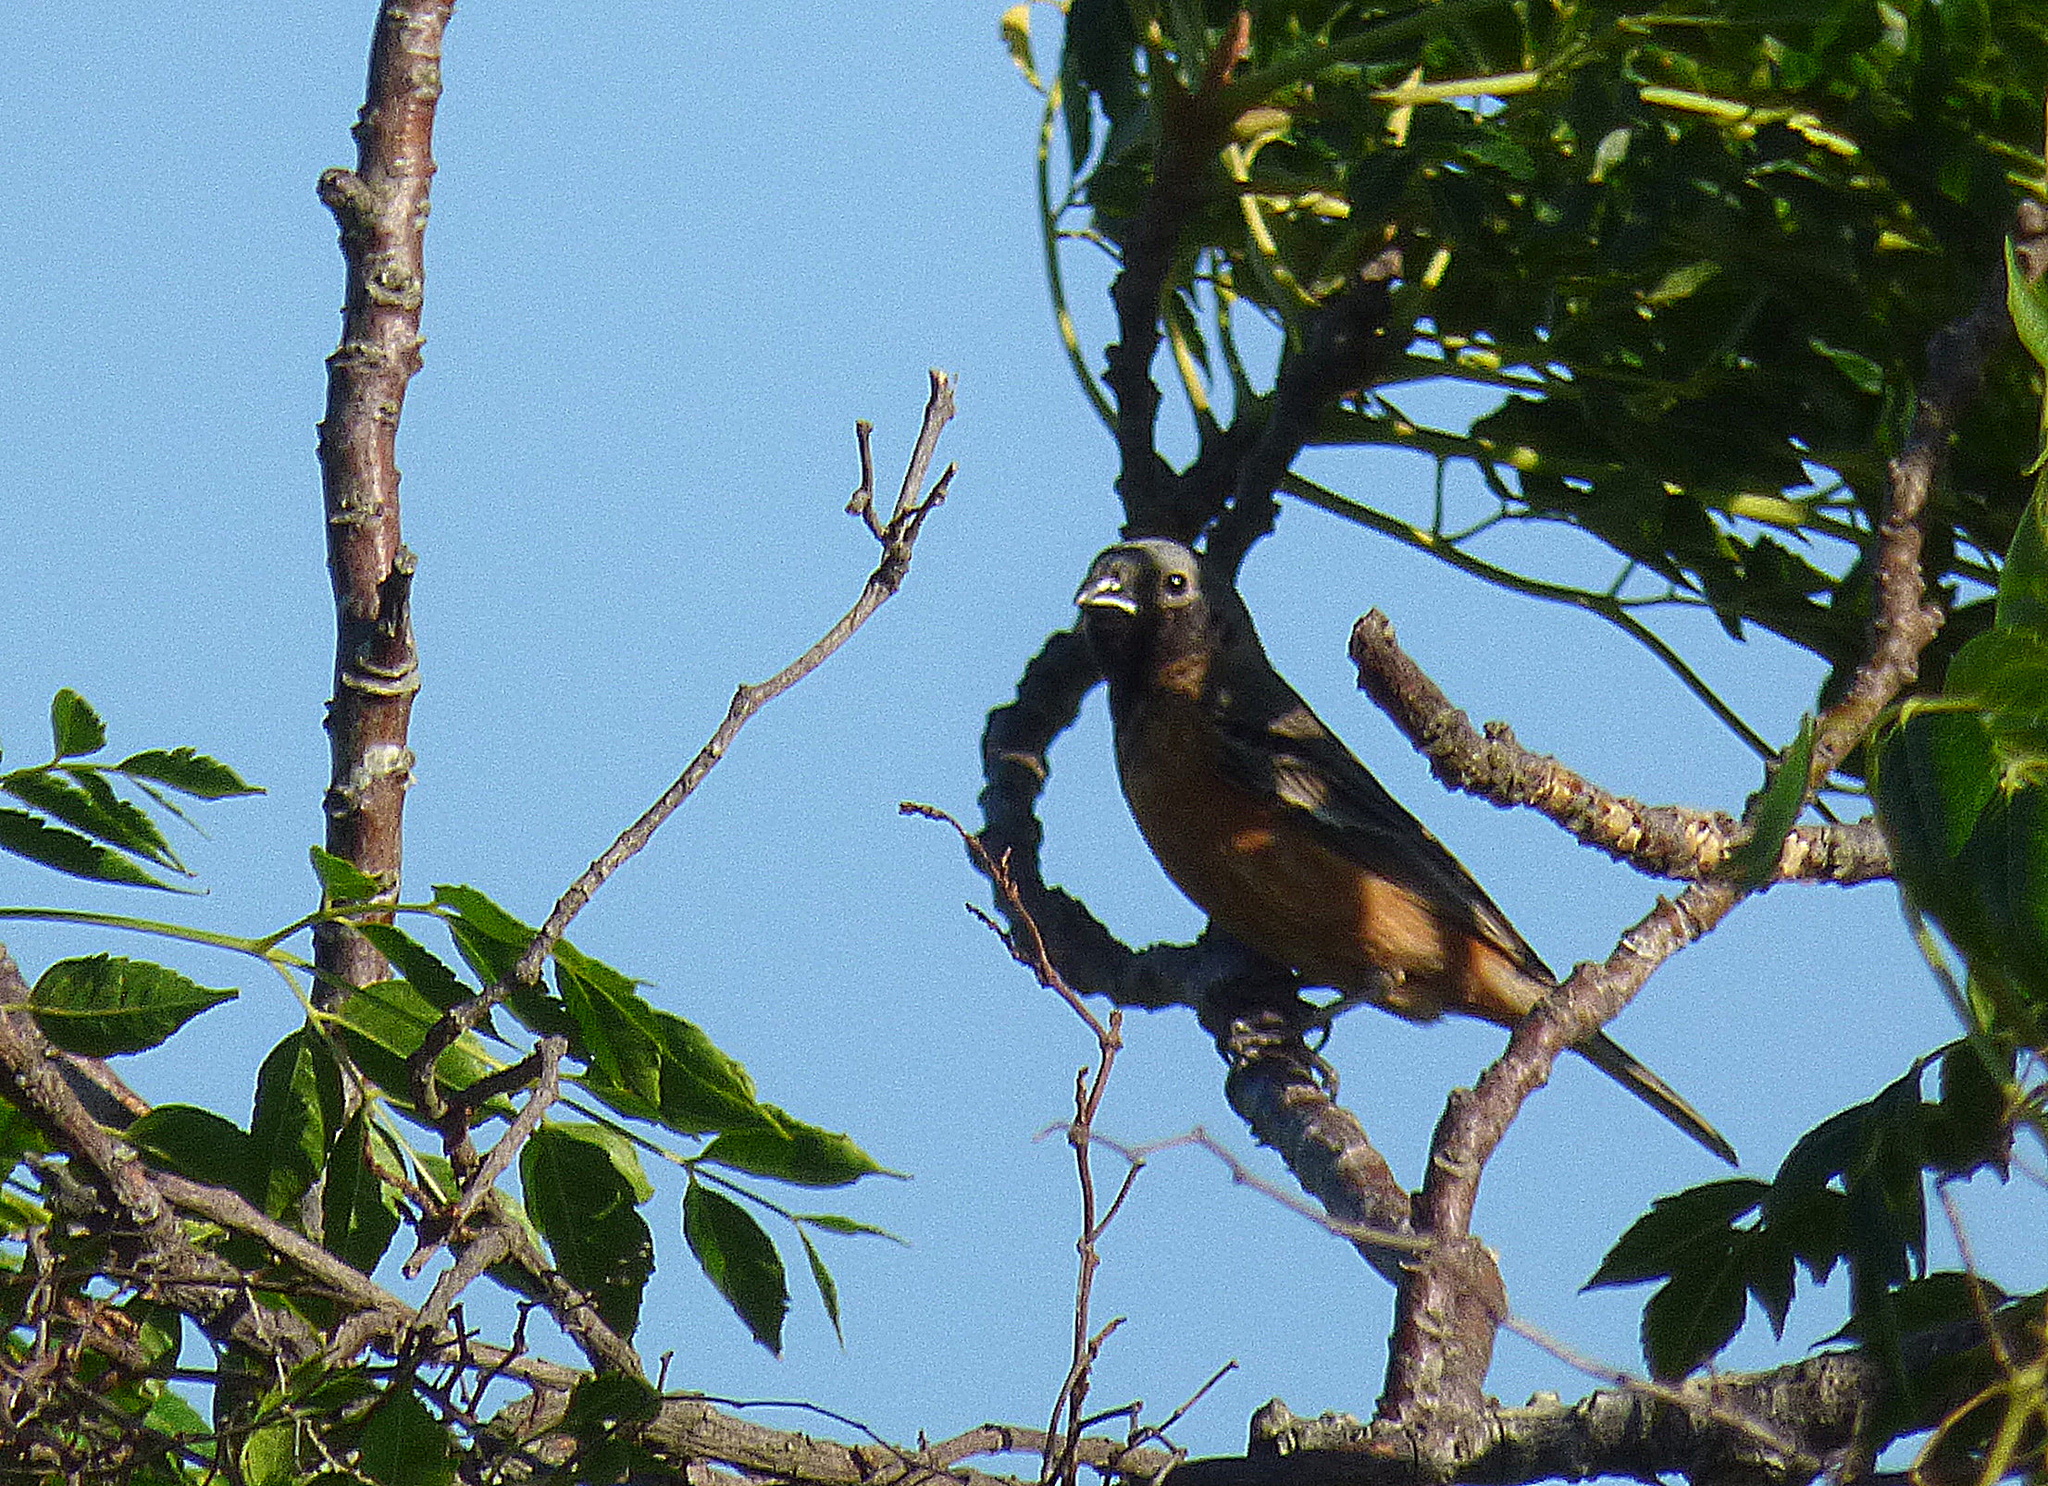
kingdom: Animalia
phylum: Chordata
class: Aves
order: Passeriformes
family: Thraupidae
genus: Sporophila
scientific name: Sporophila ruficollis
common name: Dark-throated seedeater
